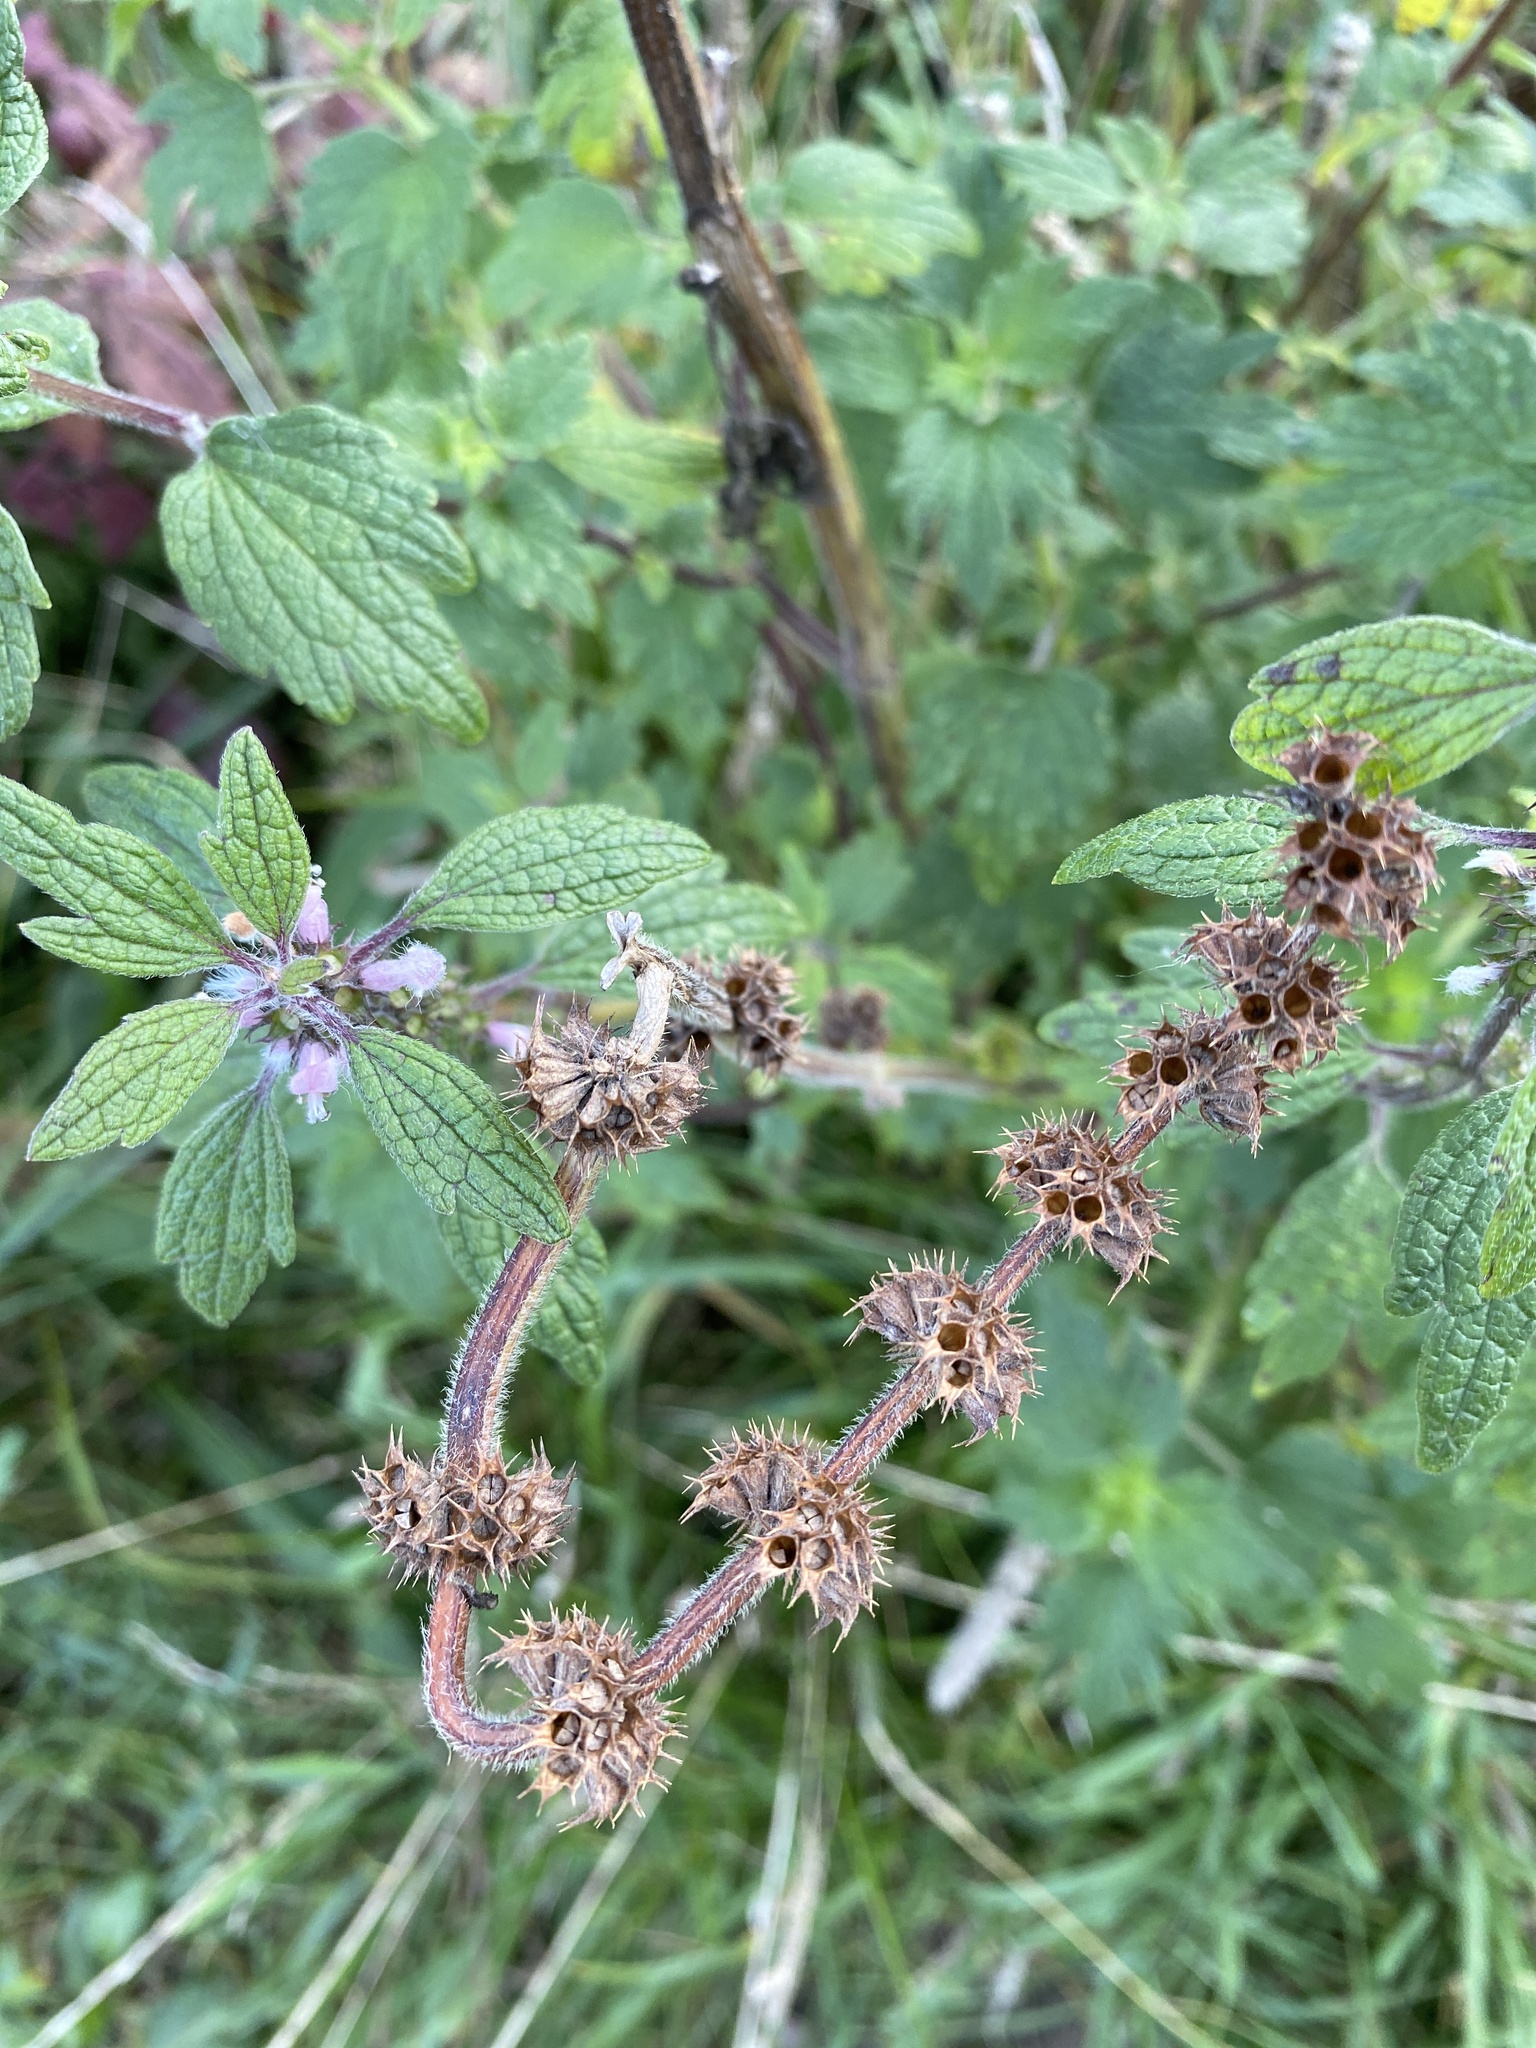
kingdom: Plantae
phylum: Tracheophyta
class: Magnoliopsida
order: Lamiales
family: Lamiaceae
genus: Leonurus
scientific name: Leonurus quinquelobatus
